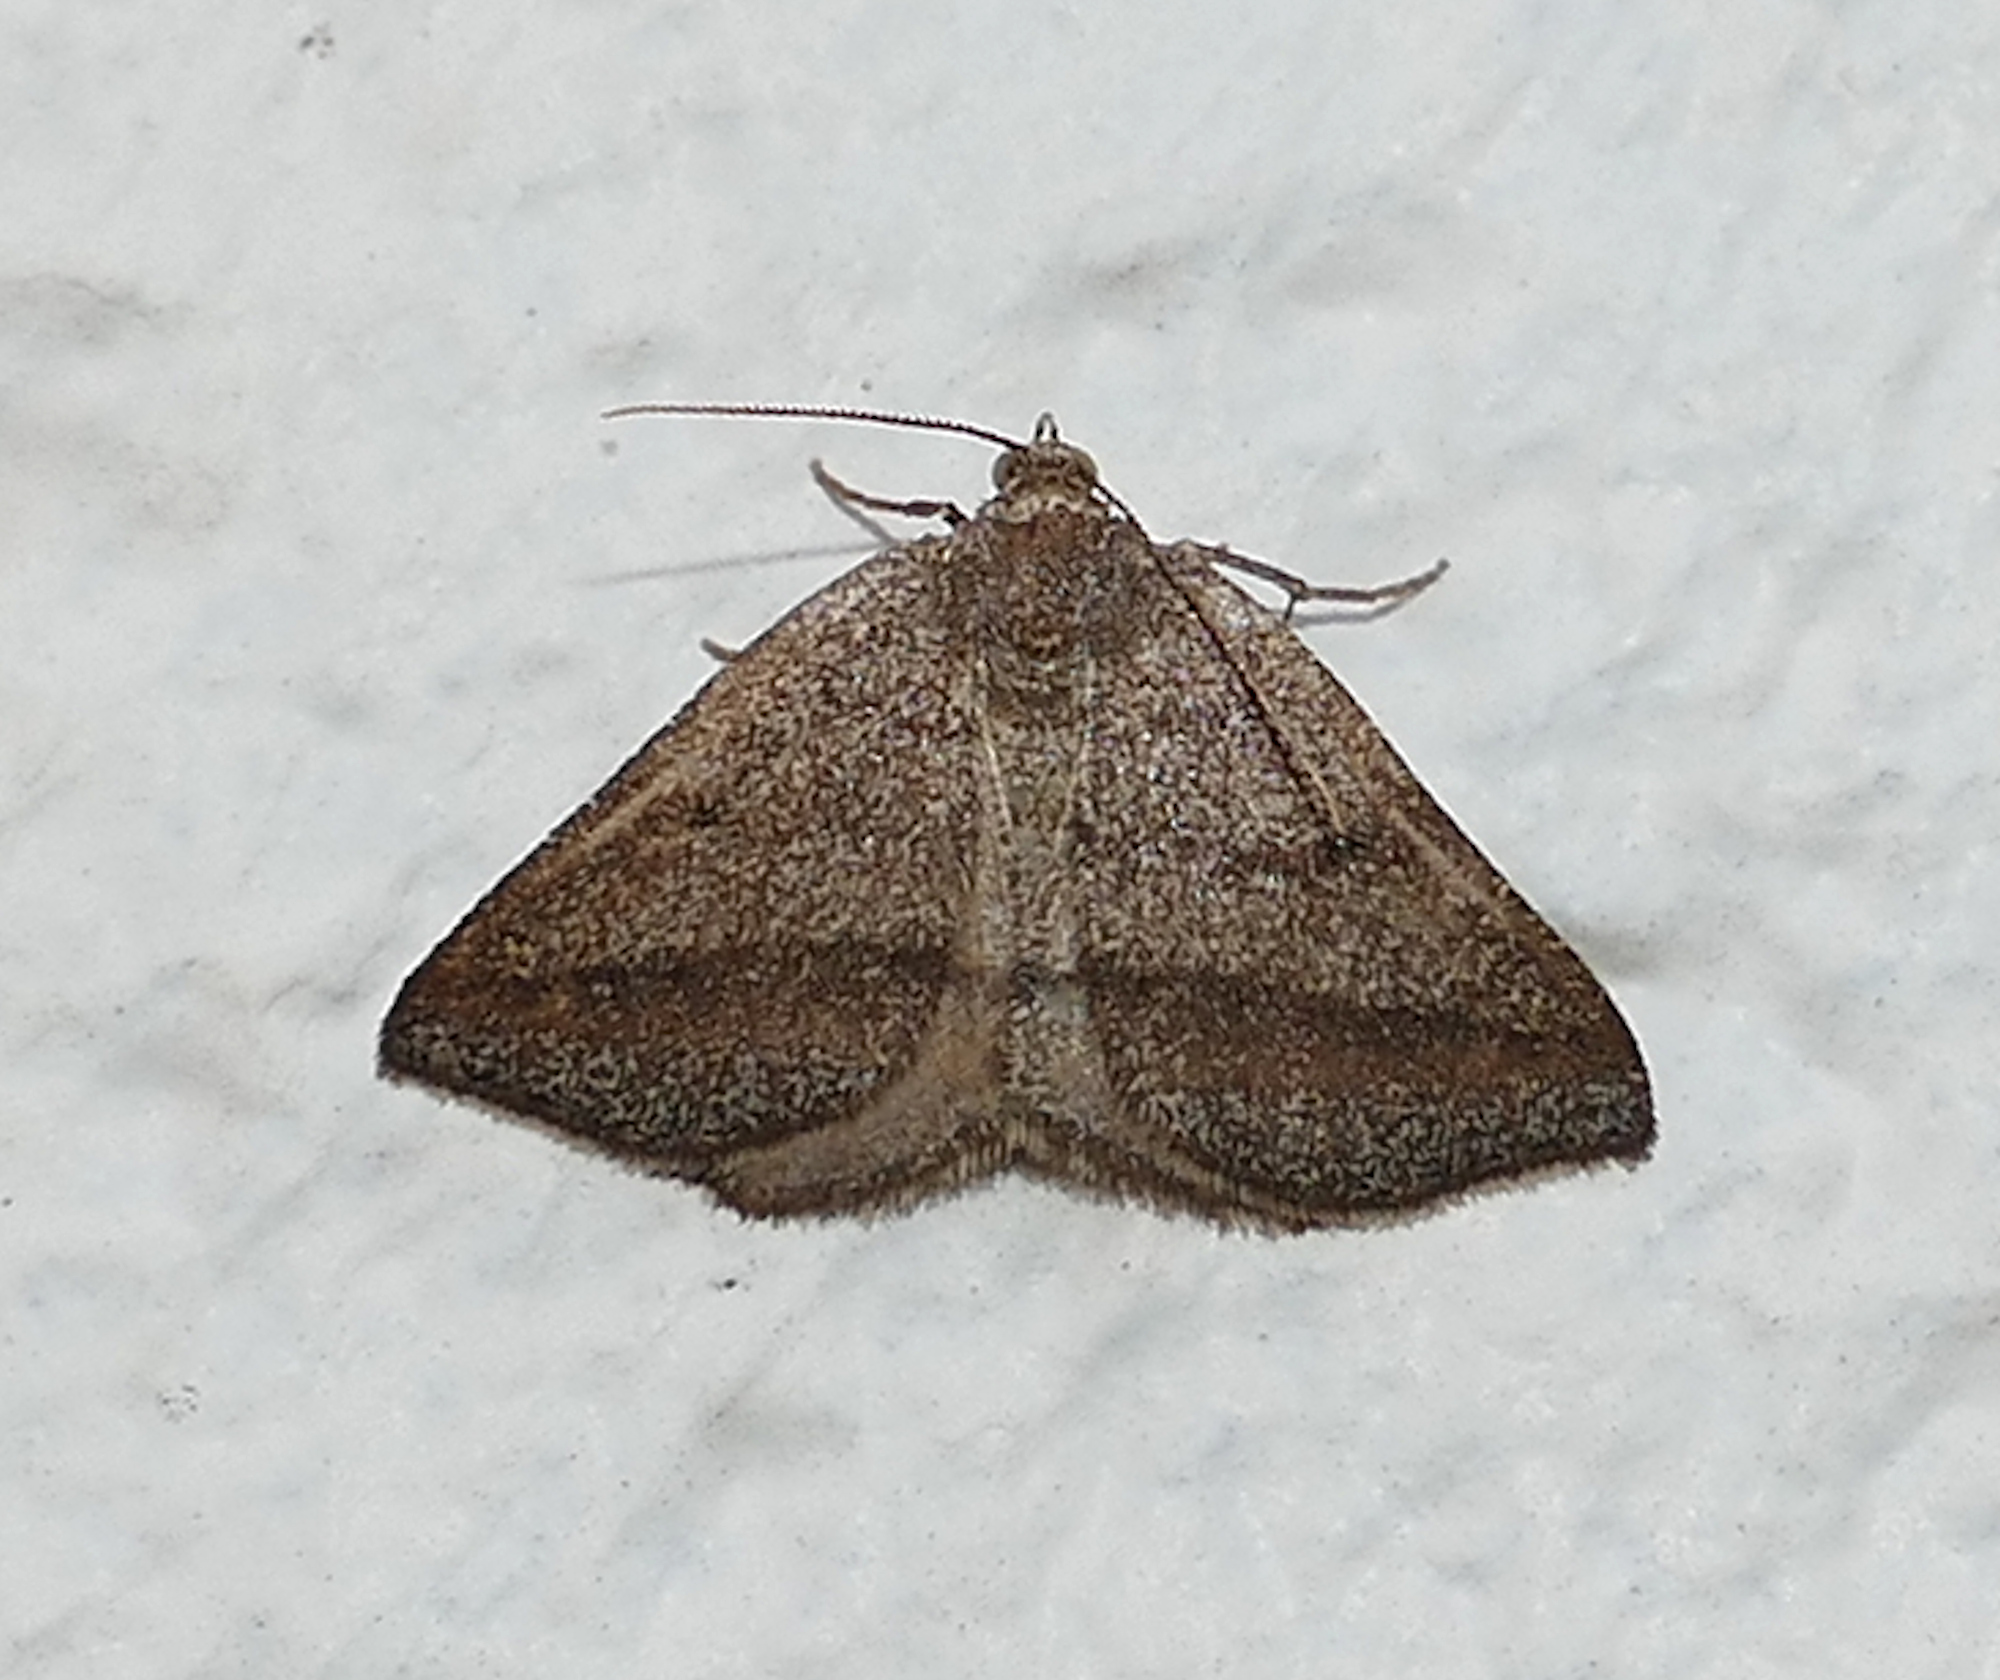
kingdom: Animalia
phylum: Arthropoda
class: Insecta
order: Lepidoptera
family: Geometridae
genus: Macaria
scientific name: Macaria varadaria
